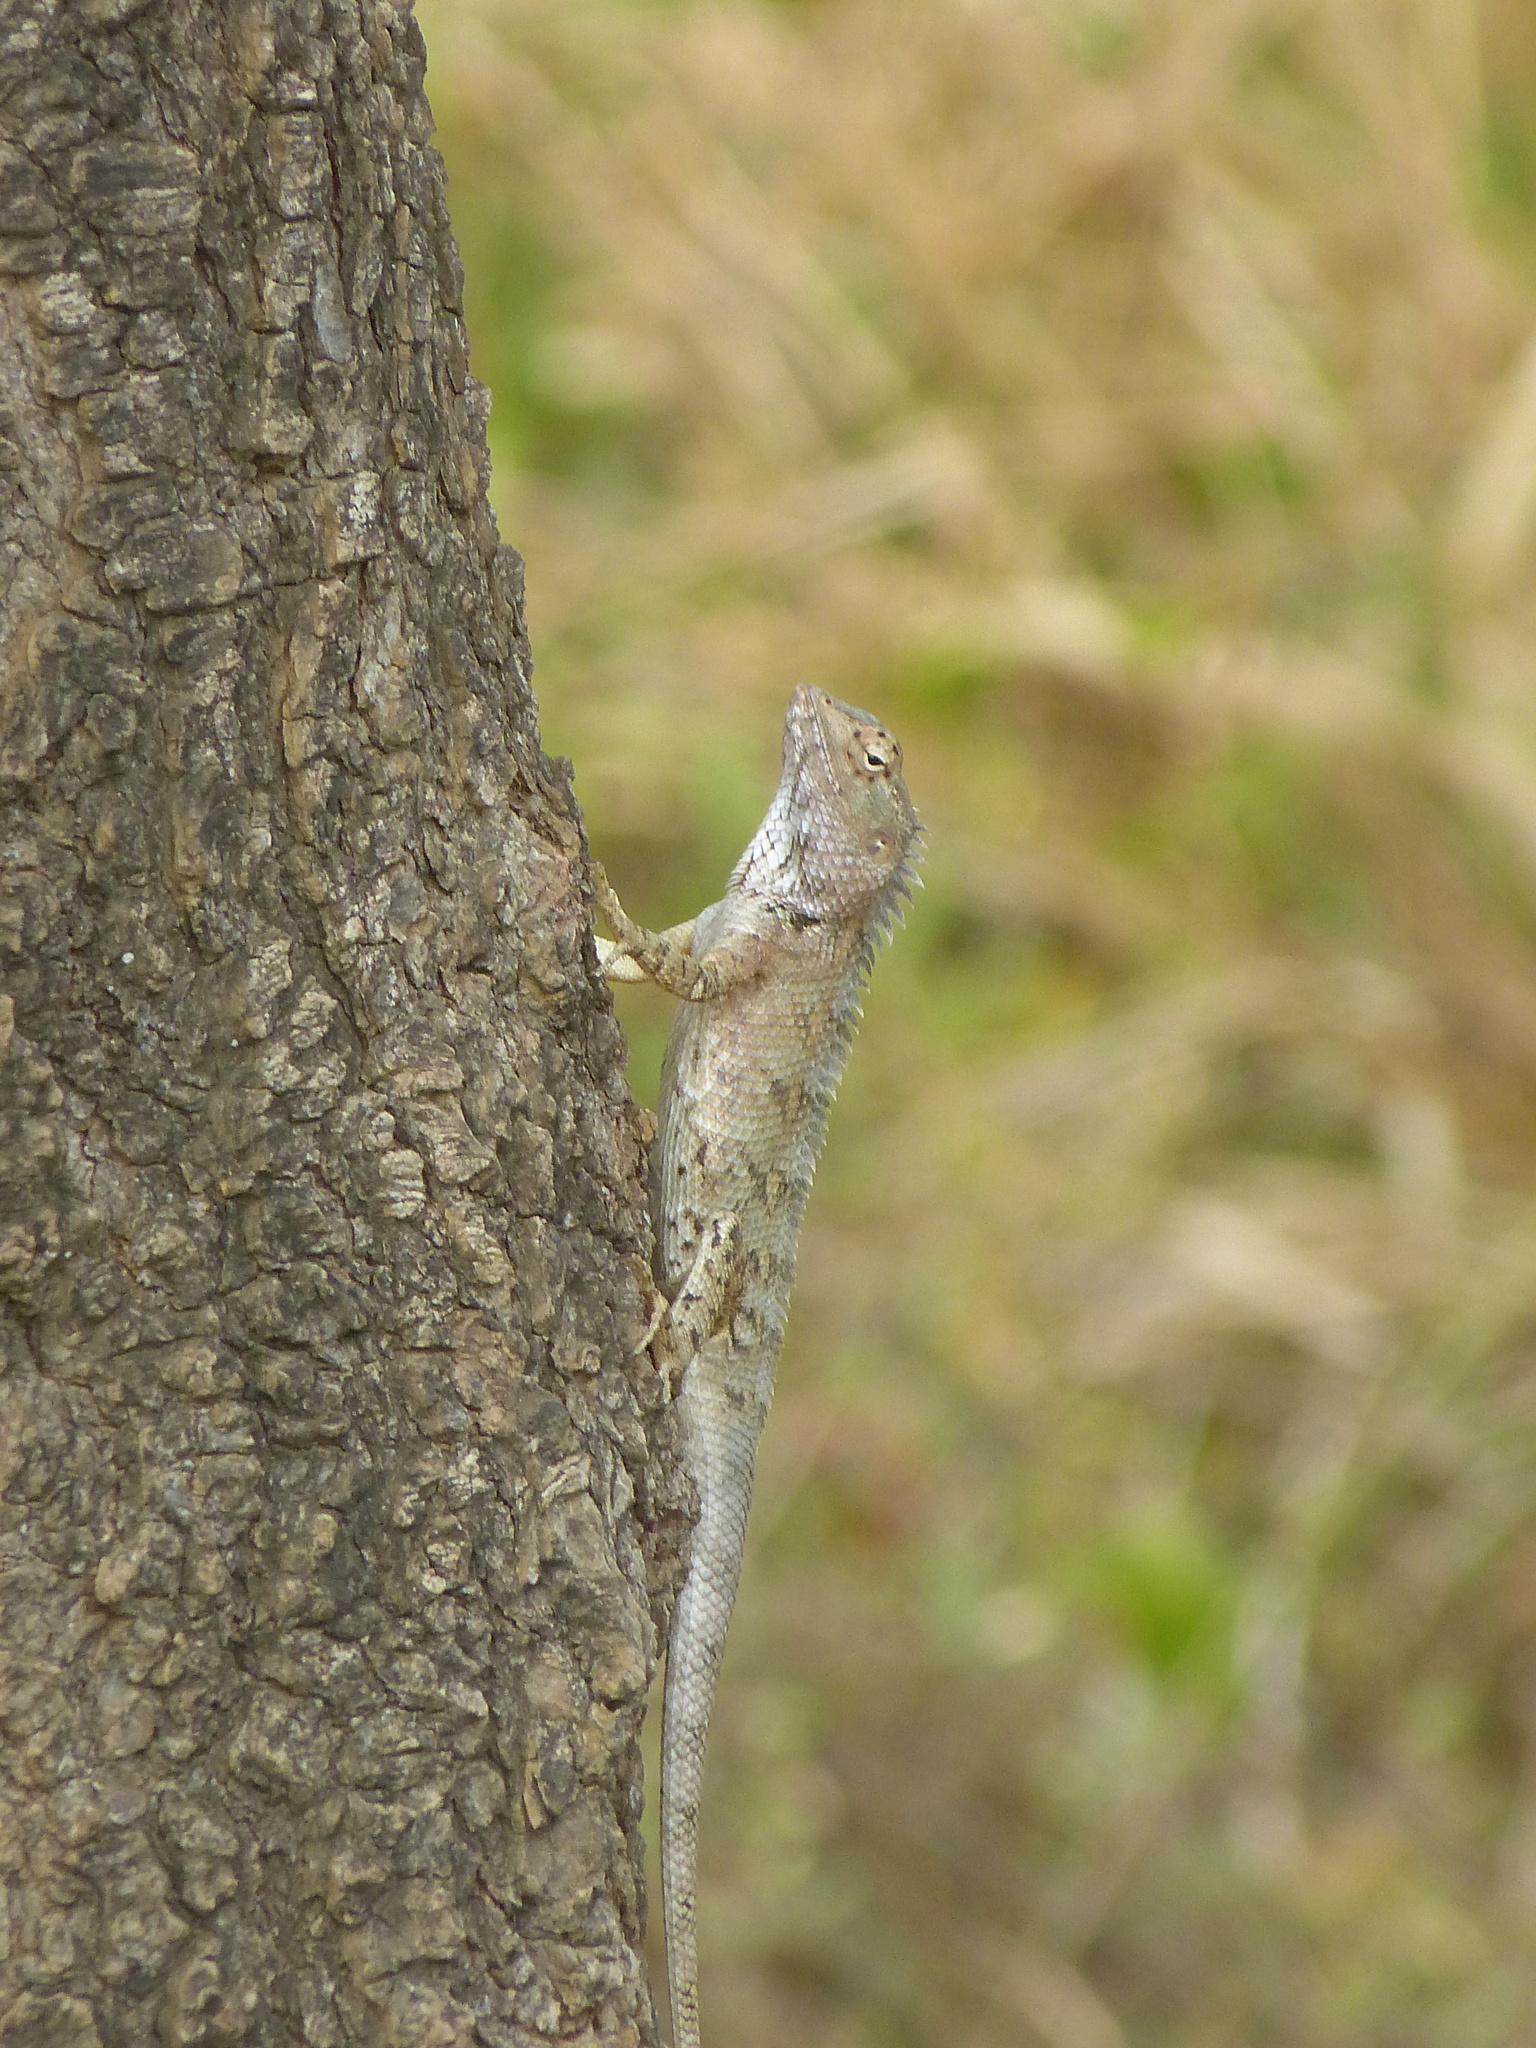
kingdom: Animalia
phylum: Chordata
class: Squamata
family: Agamidae
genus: Calotes
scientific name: Calotes versicolor
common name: Oriental garden lizard
